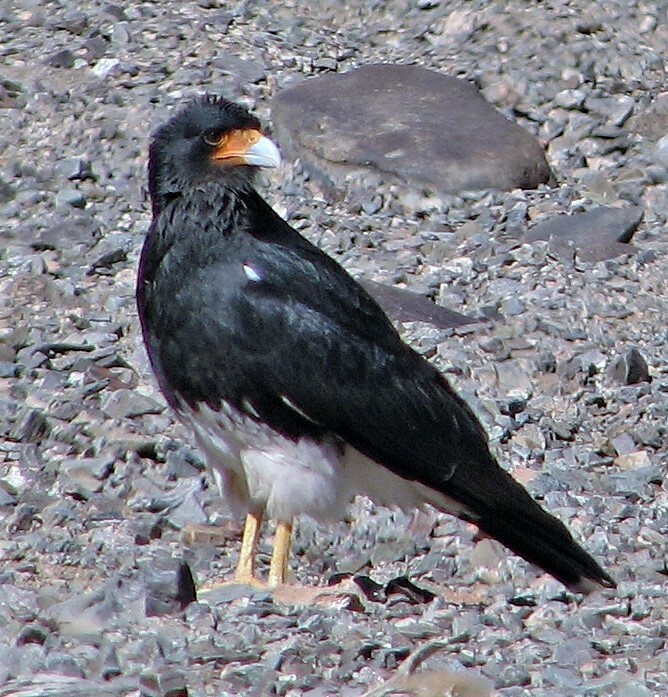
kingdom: Animalia
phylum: Chordata
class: Aves
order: Falconiformes
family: Falconidae
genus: Daptrius
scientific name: Daptrius
